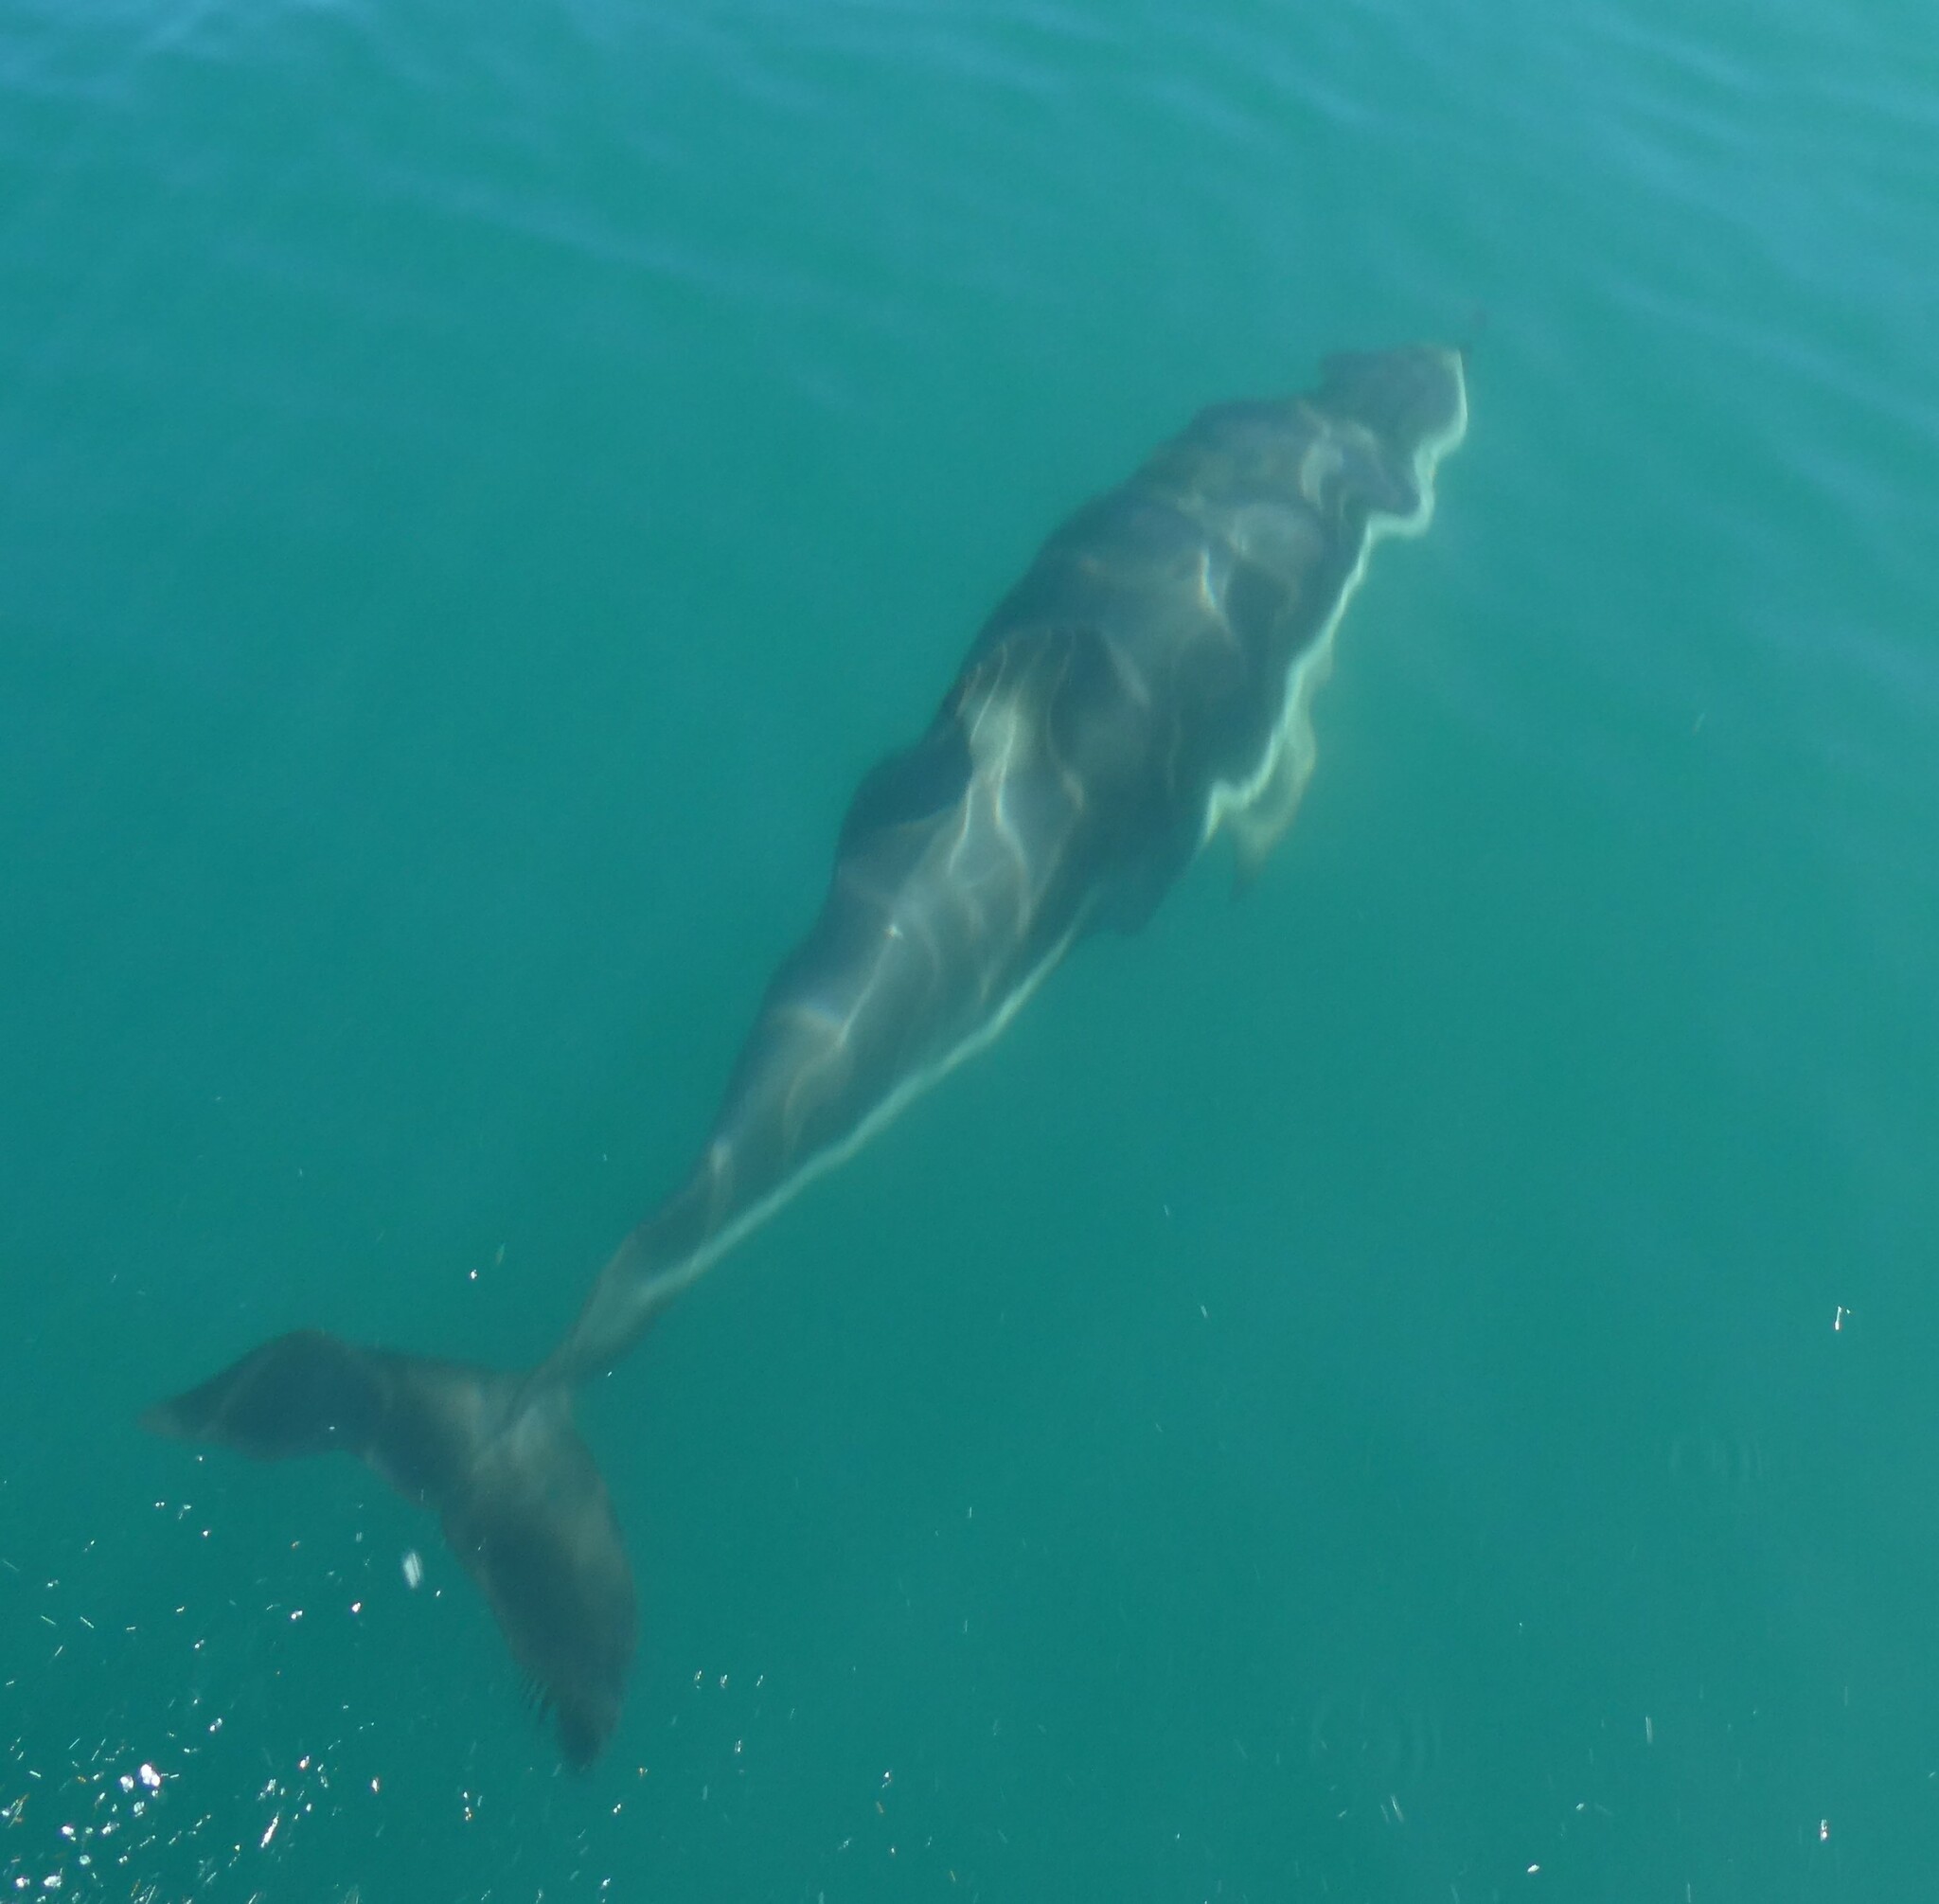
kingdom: Animalia
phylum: Chordata
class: Mammalia
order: Cetacea
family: Delphinidae
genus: Lagenorhynchus
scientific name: Lagenorhynchus obscurus
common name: Dusky dolphin
